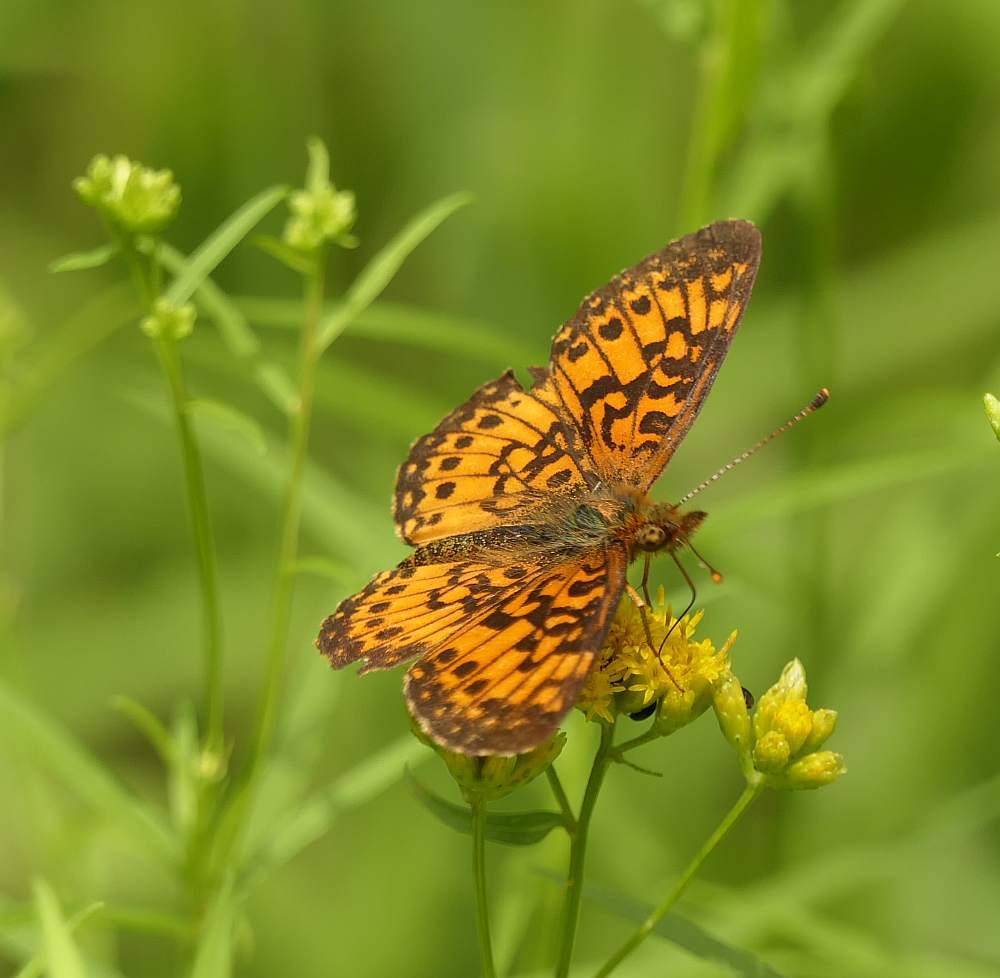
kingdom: Animalia
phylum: Arthropoda
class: Insecta
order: Lepidoptera
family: Nymphalidae
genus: Boloria
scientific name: Boloria
